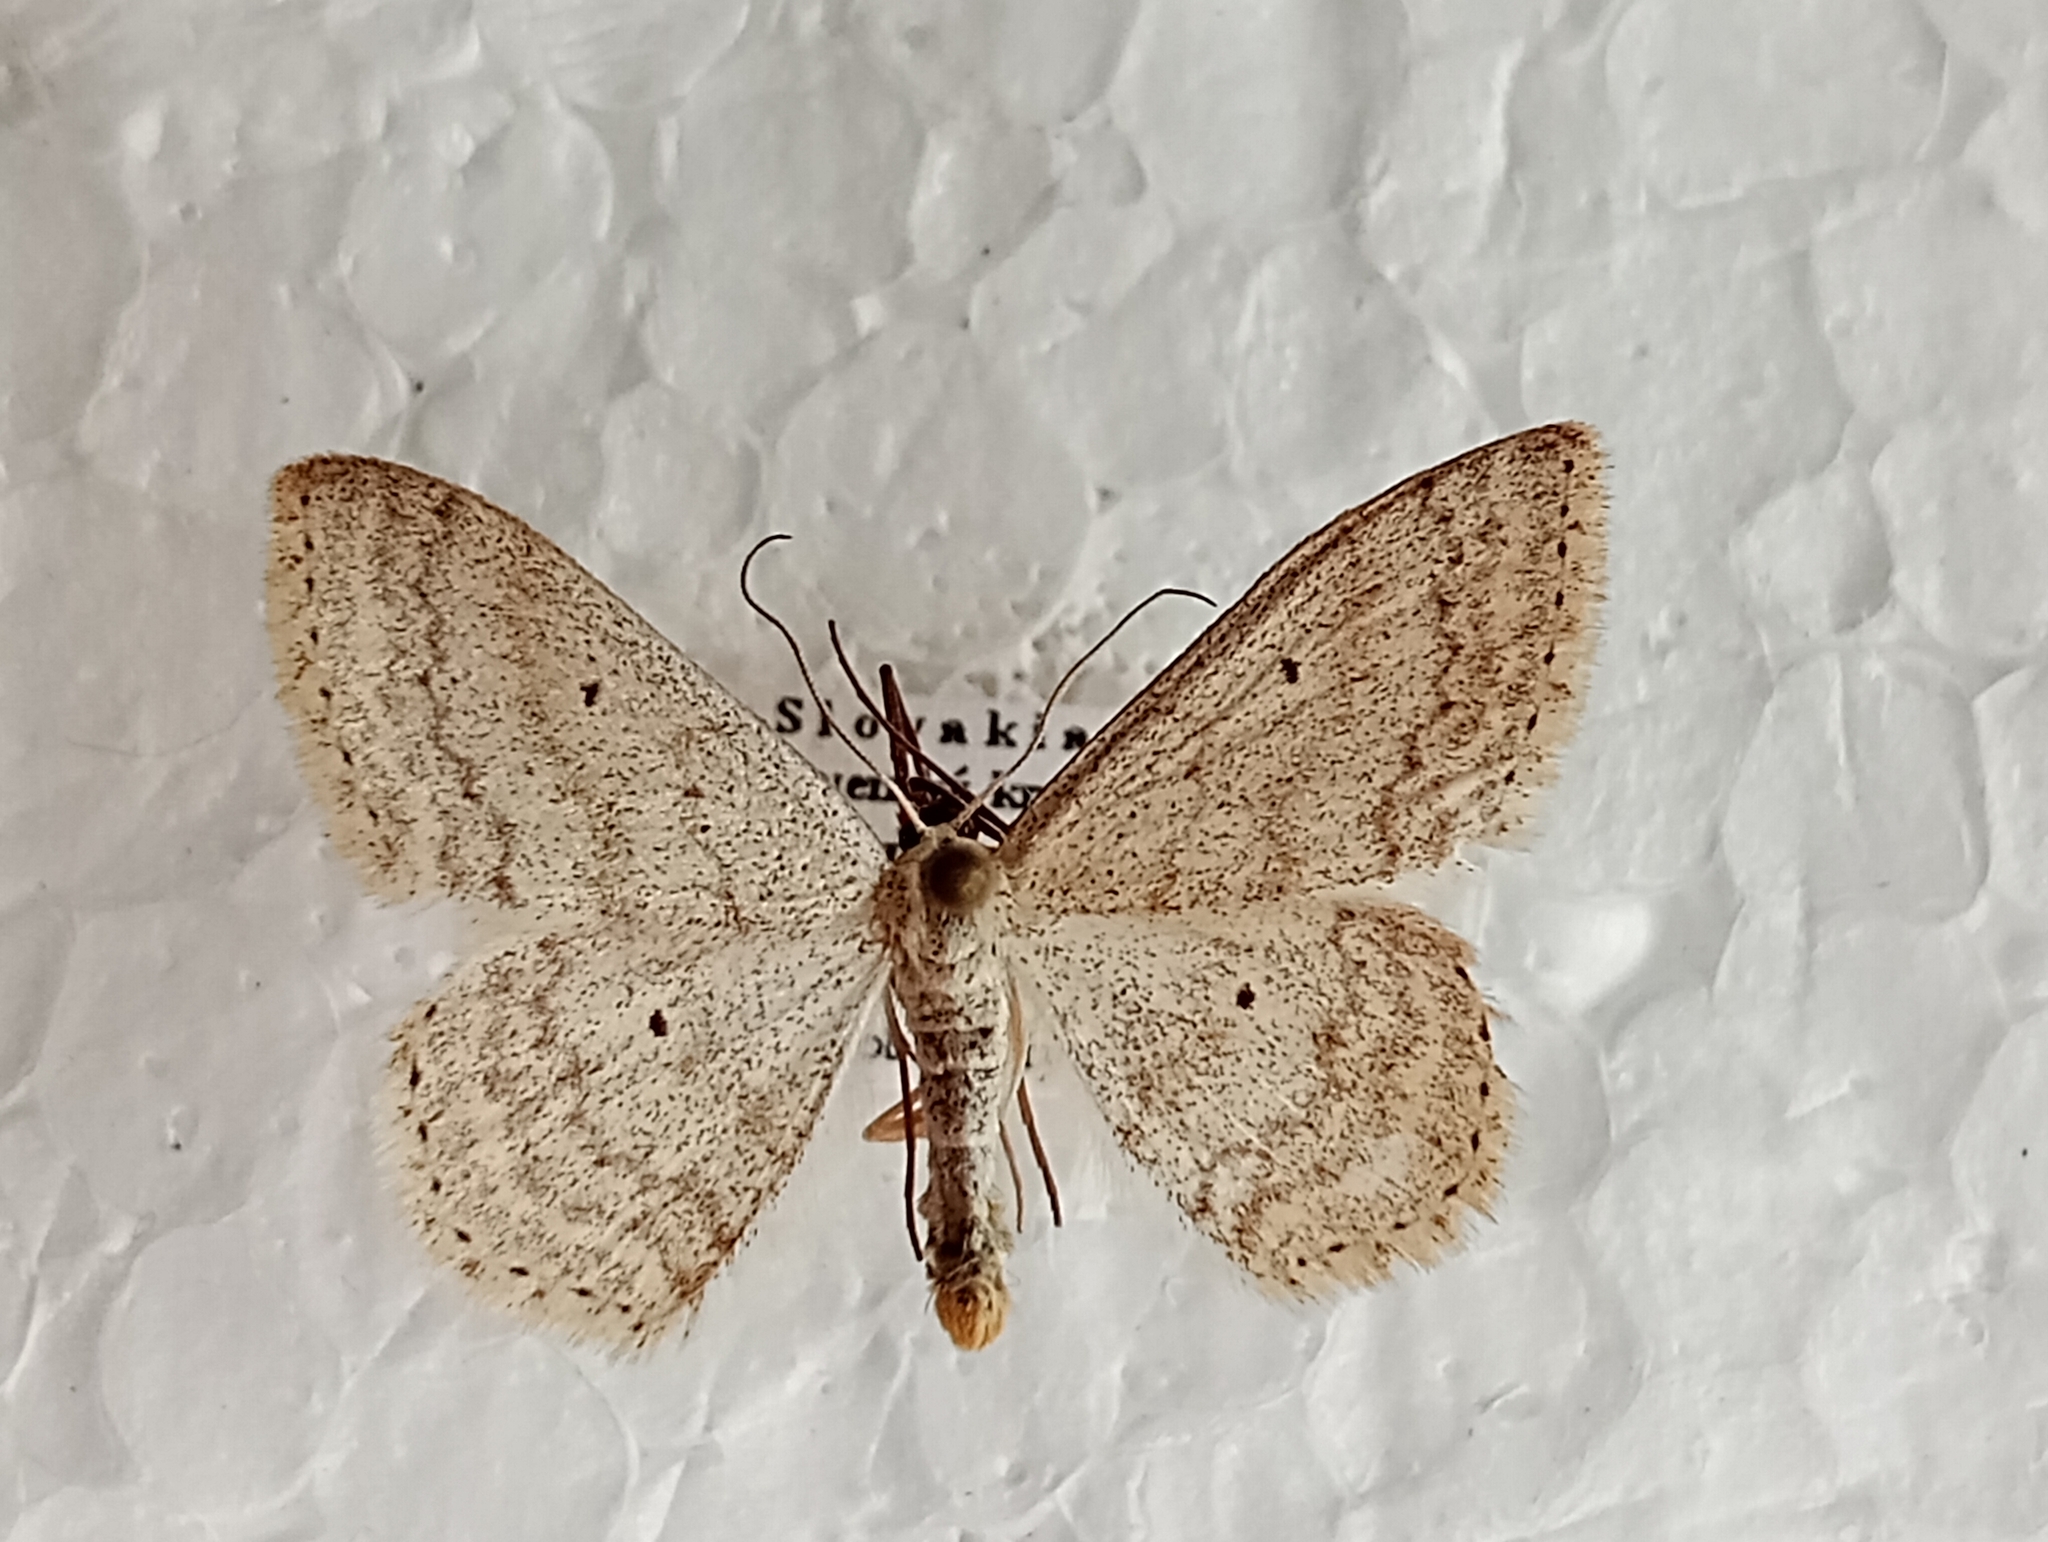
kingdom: Animalia
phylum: Arthropoda
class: Insecta
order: Lepidoptera
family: Geometridae
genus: Scopula
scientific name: Scopula incanata
